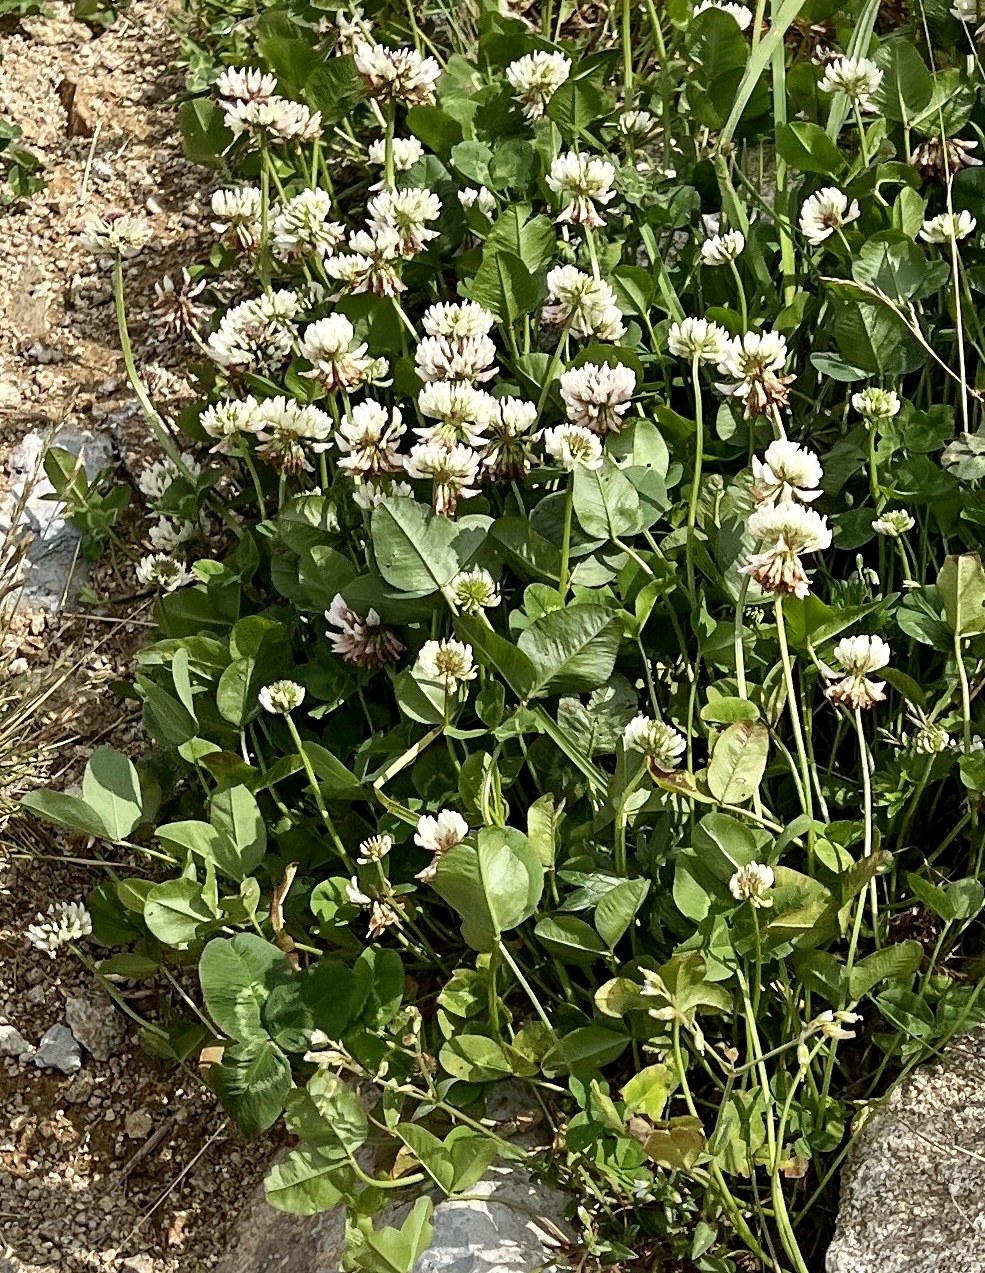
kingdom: Plantae
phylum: Tracheophyta
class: Magnoliopsida
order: Fabales
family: Fabaceae
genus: Trifolium
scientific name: Trifolium repens
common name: White clover
